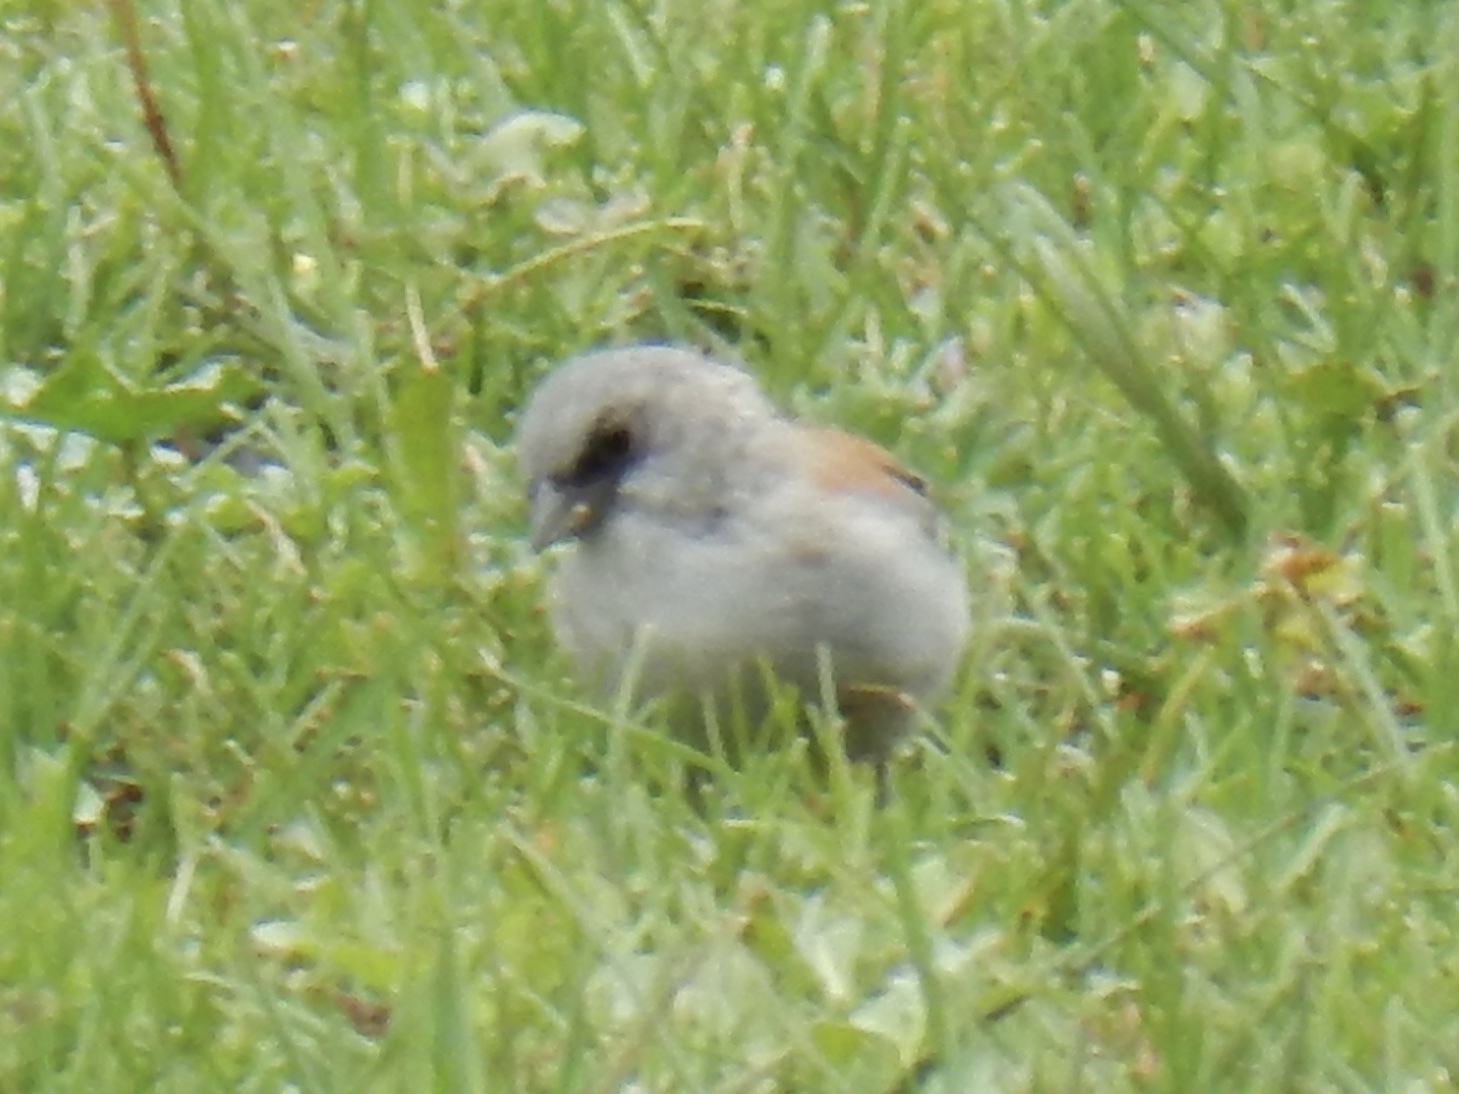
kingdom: Animalia
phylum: Chordata
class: Aves
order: Passeriformes
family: Passerellidae
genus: Junco
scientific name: Junco hyemalis
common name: Dark-eyed junco
